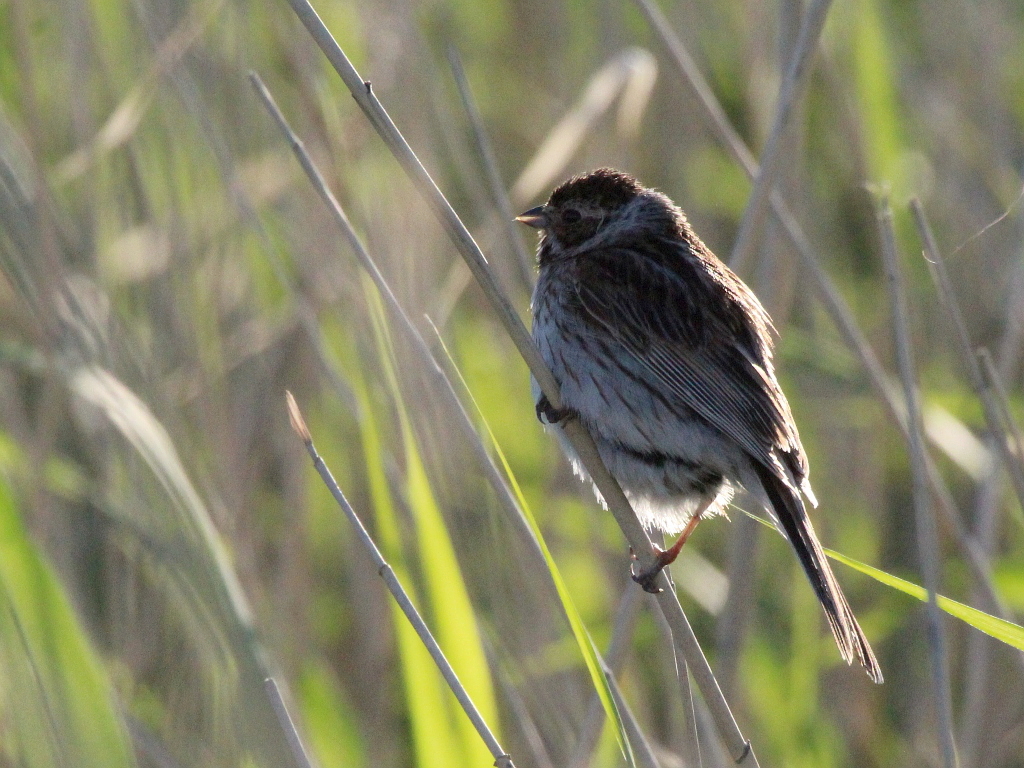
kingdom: Animalia
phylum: Chordata
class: Aves
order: Passeriformes
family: Emberizidae
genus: Emberiza
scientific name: Emberiza schoeniclus
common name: Reed bunting
